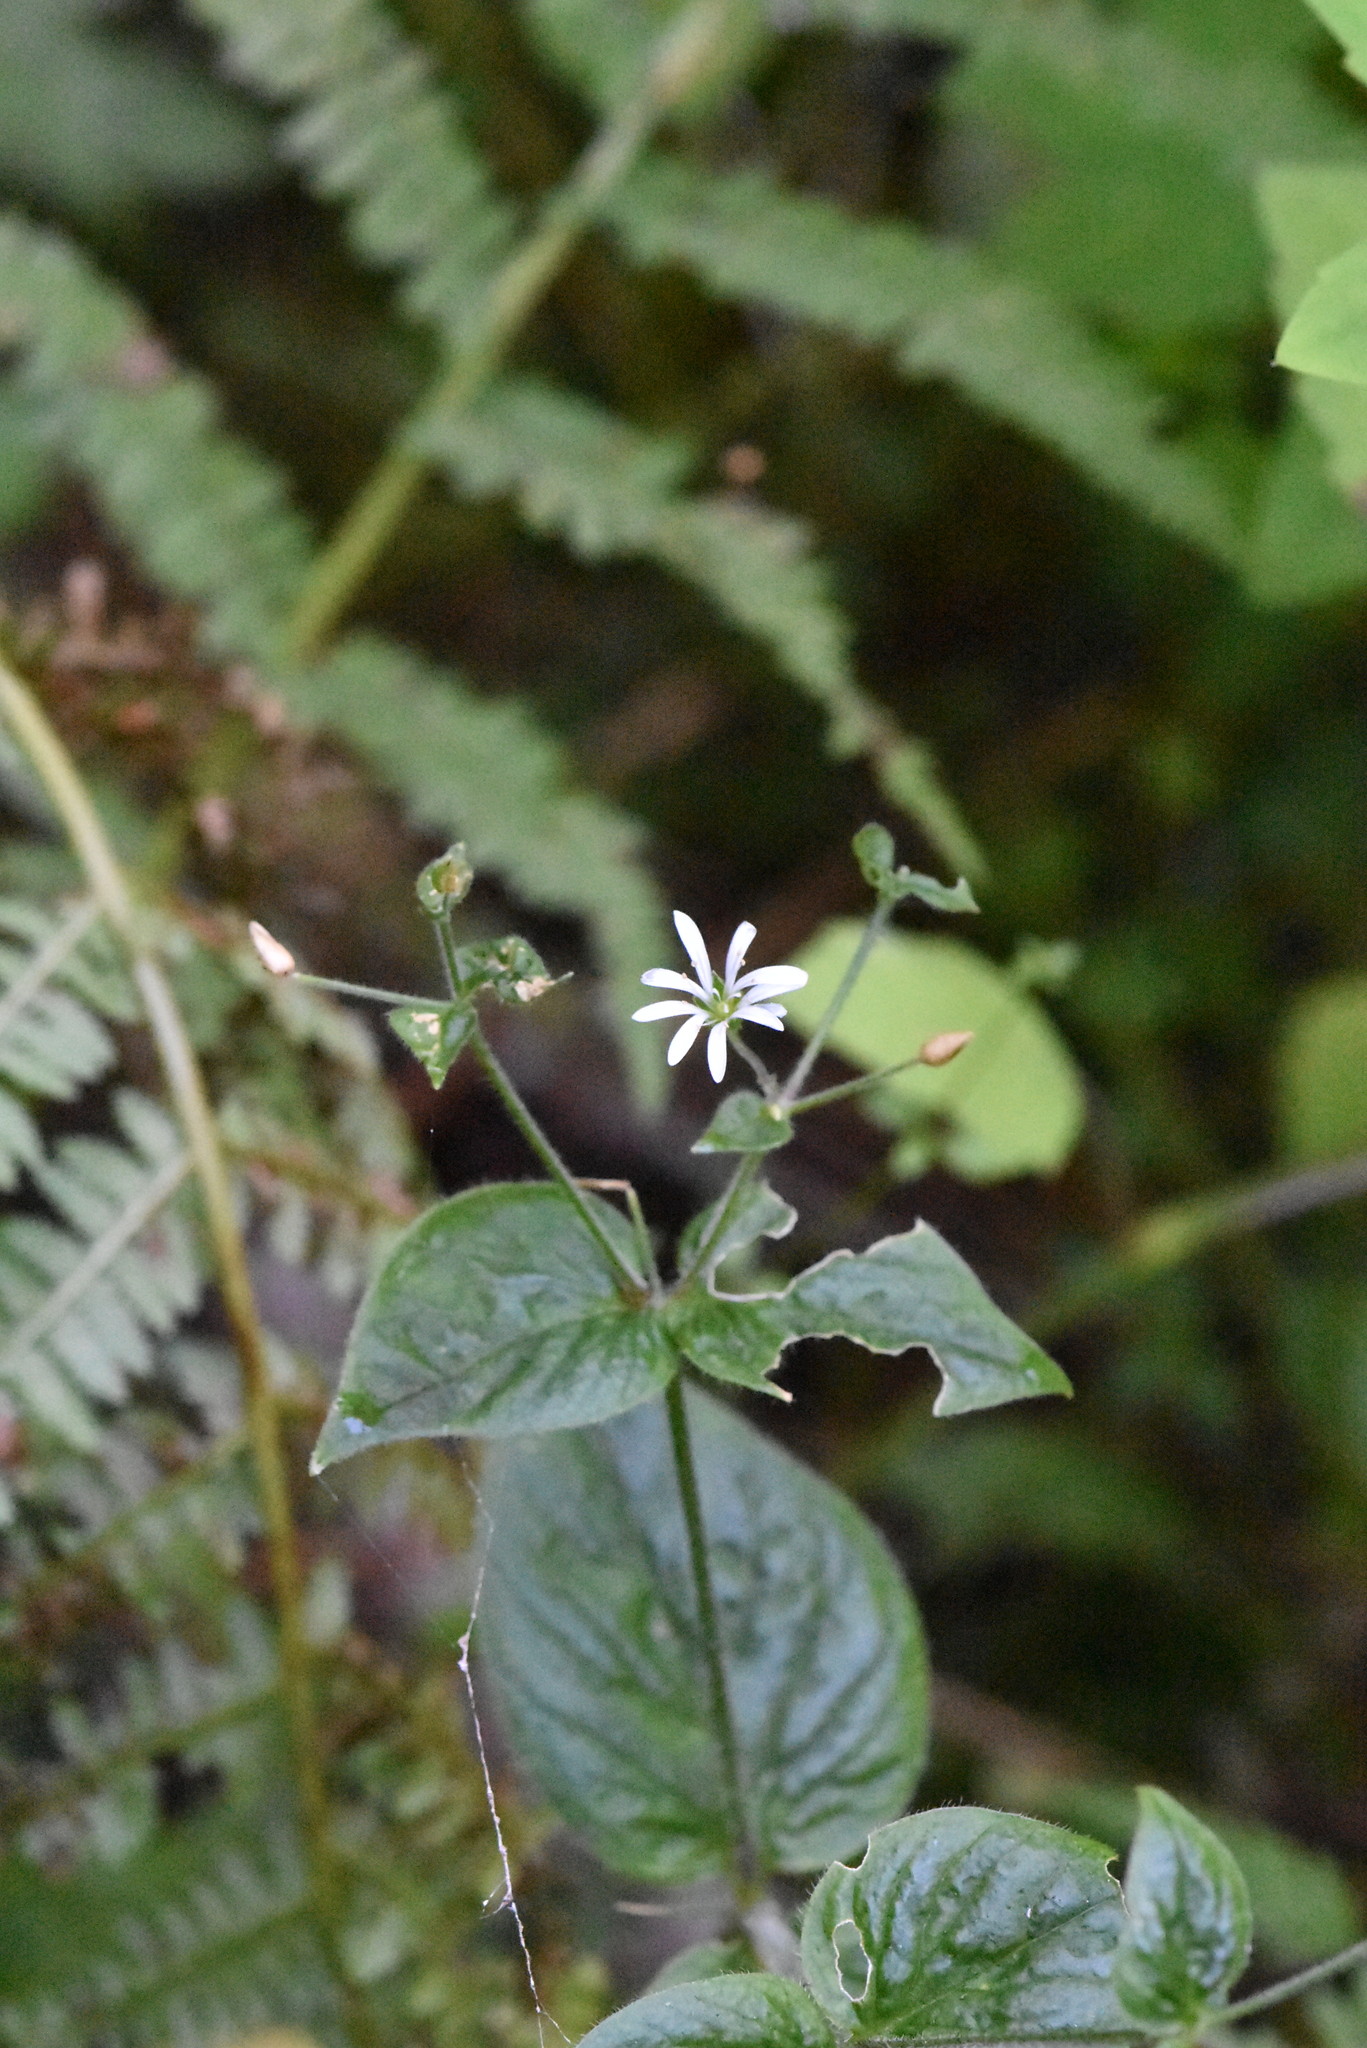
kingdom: Plantae
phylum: Tracheophyta
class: Magnoliopsida
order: Caryophyllales
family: Caryophyllaceae
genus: Stellaria
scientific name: Stellaria nemorum
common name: Wood stitchwort
